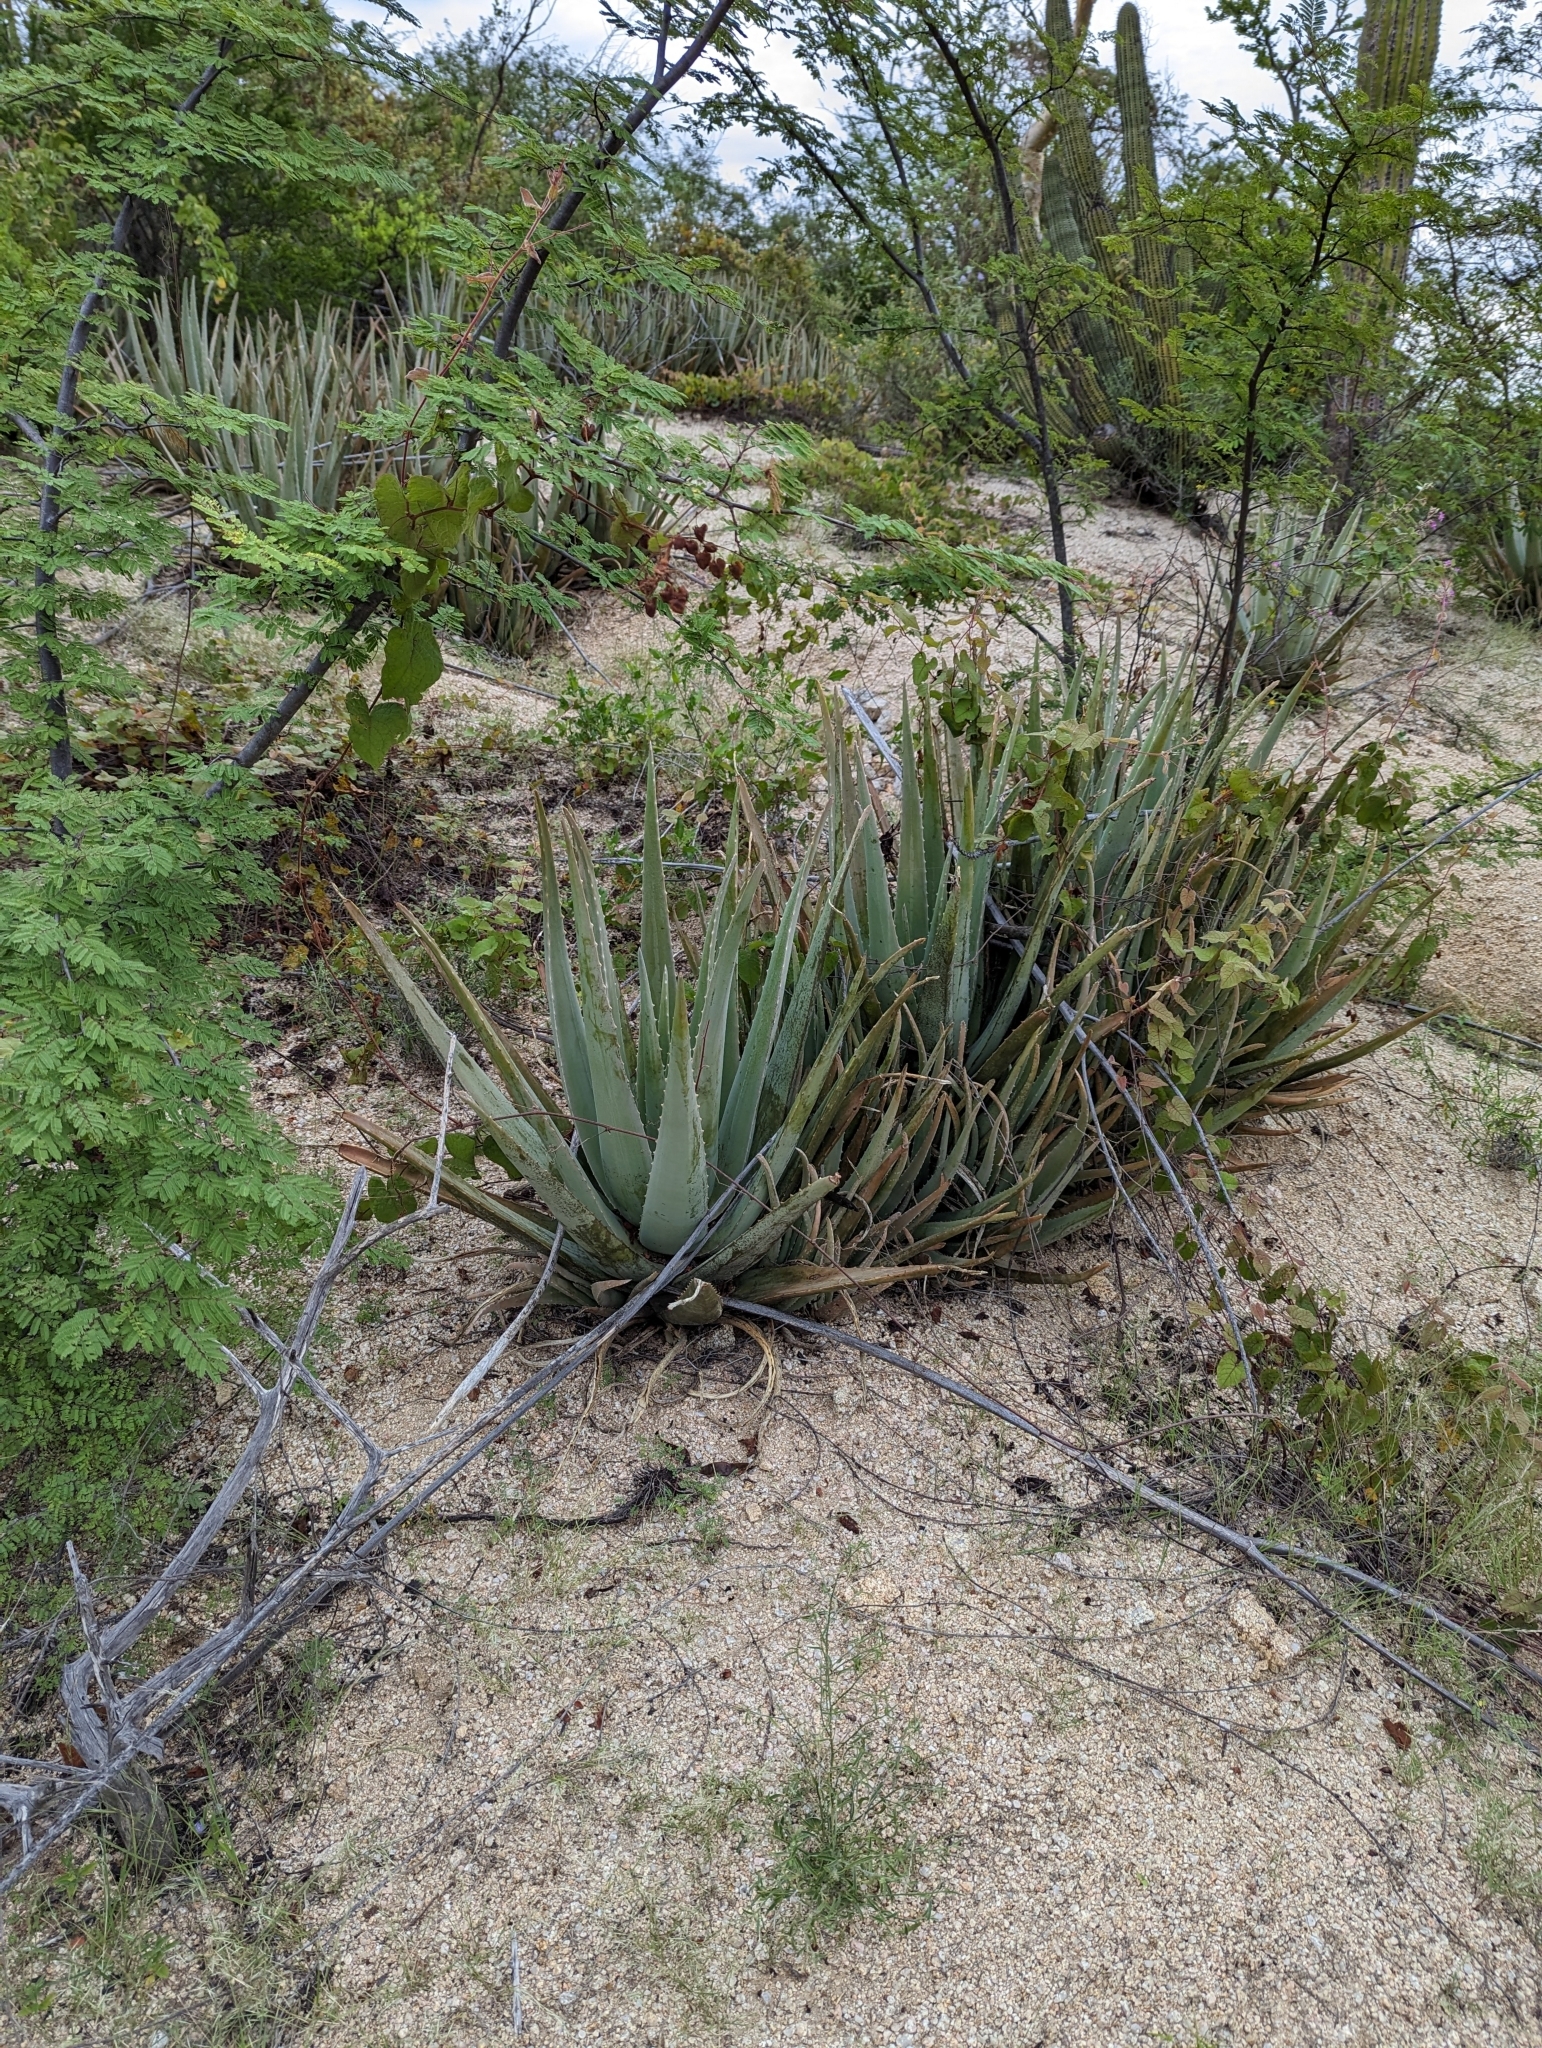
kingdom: Plantae
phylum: Tracheophyta
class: Liliopsida
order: Asparagales
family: Asphodelaceae
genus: Aloe
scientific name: Aloe vera
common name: Barbados aloe
